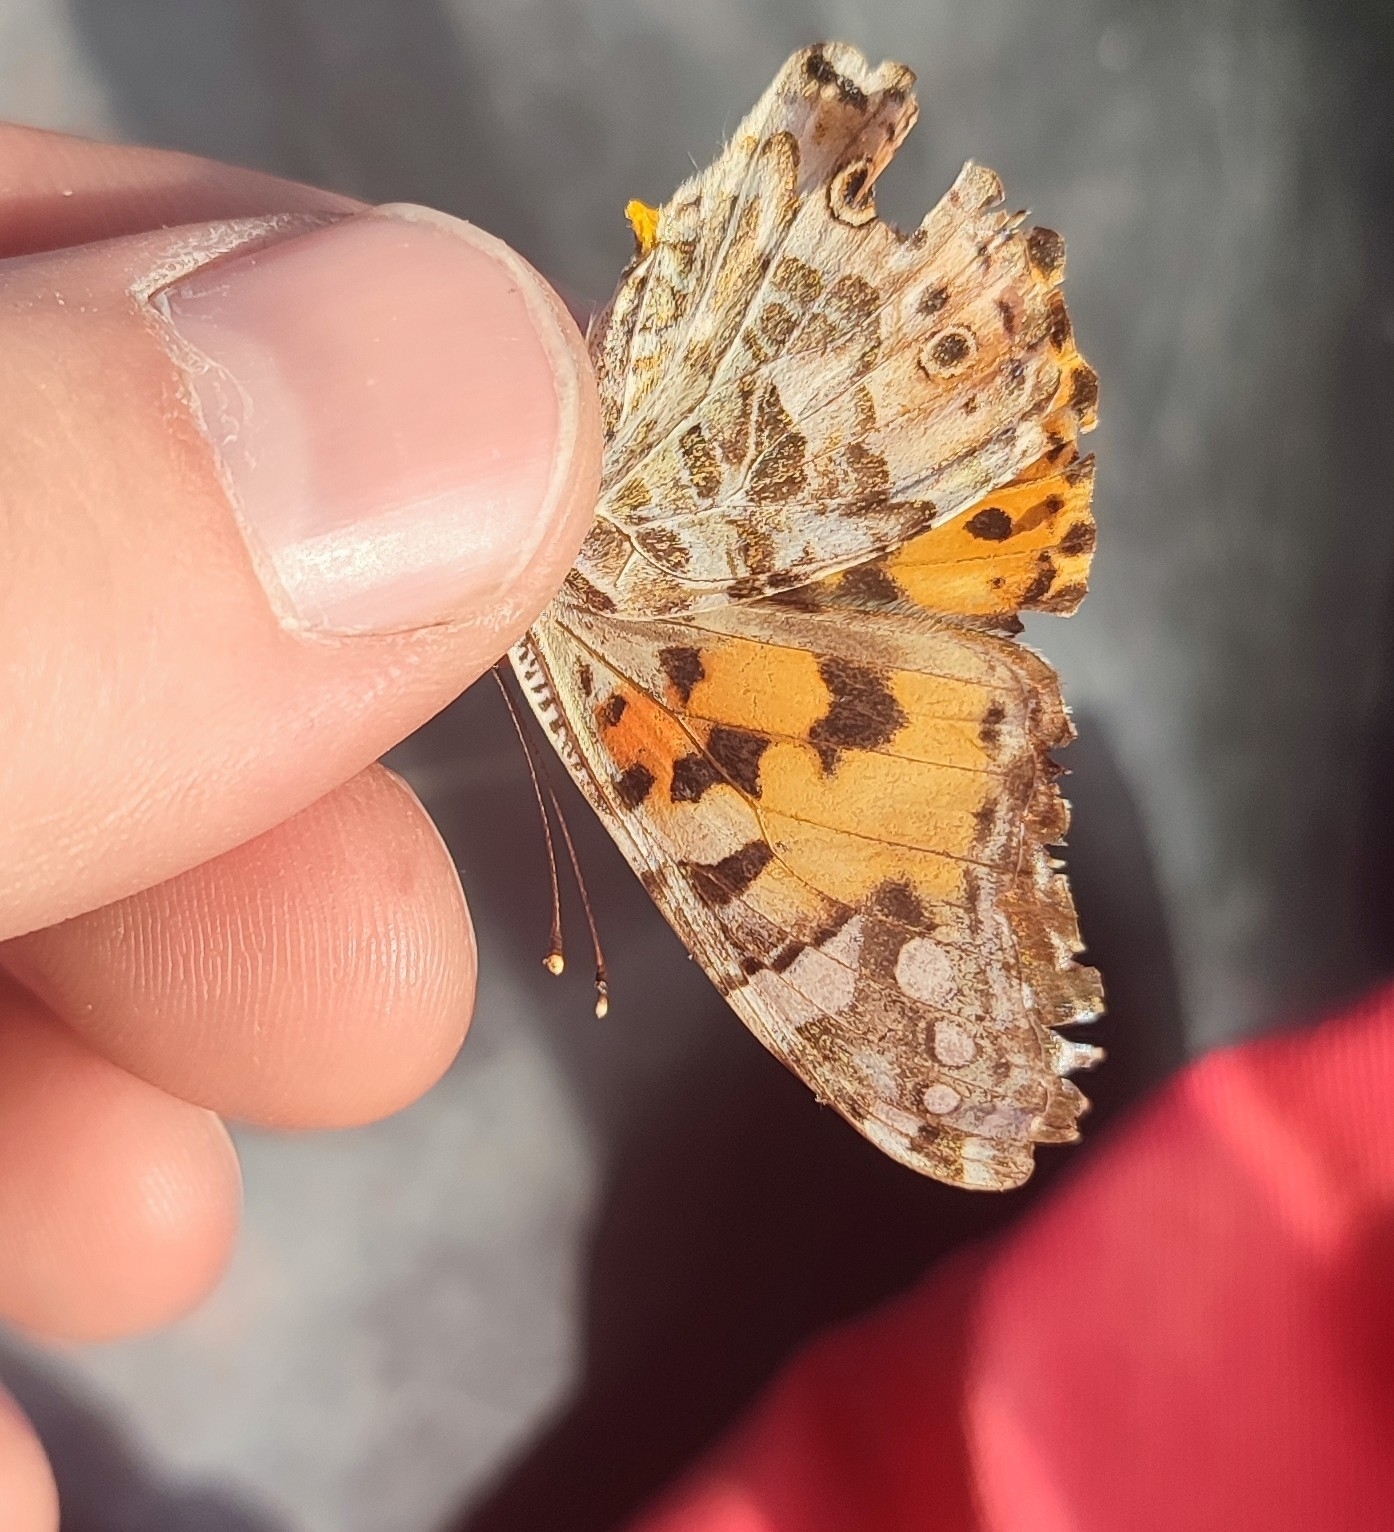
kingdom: Animalia
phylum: Arthropoda
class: Insecta
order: Lepidoptera
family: Nymphalidae
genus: Vanessa
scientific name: Vanessa cardui
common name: Painted lady
